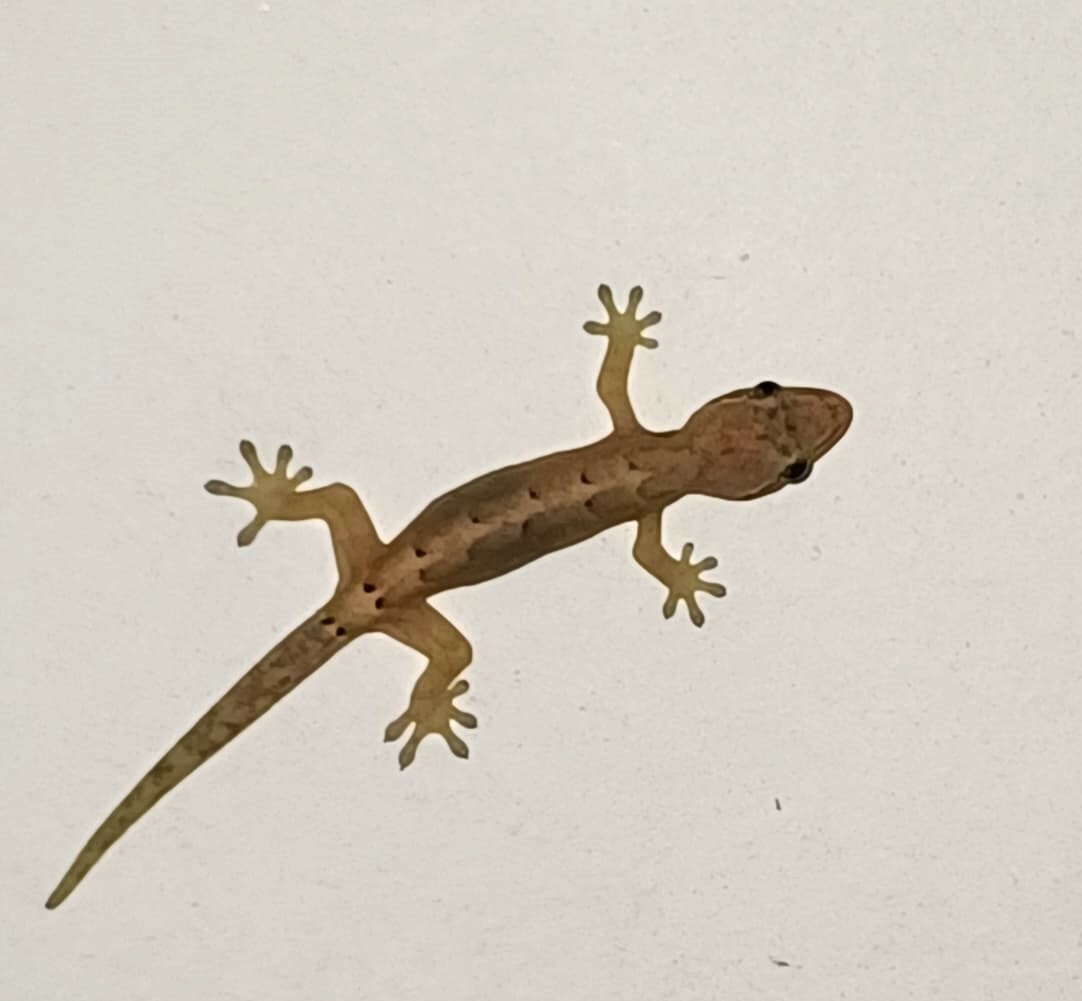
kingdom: Animalia
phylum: Chordata
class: Squamata
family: Gekkonidae
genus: Lepidodactylus
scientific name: Lepidodactylus lugubris
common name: Mourning gecko
